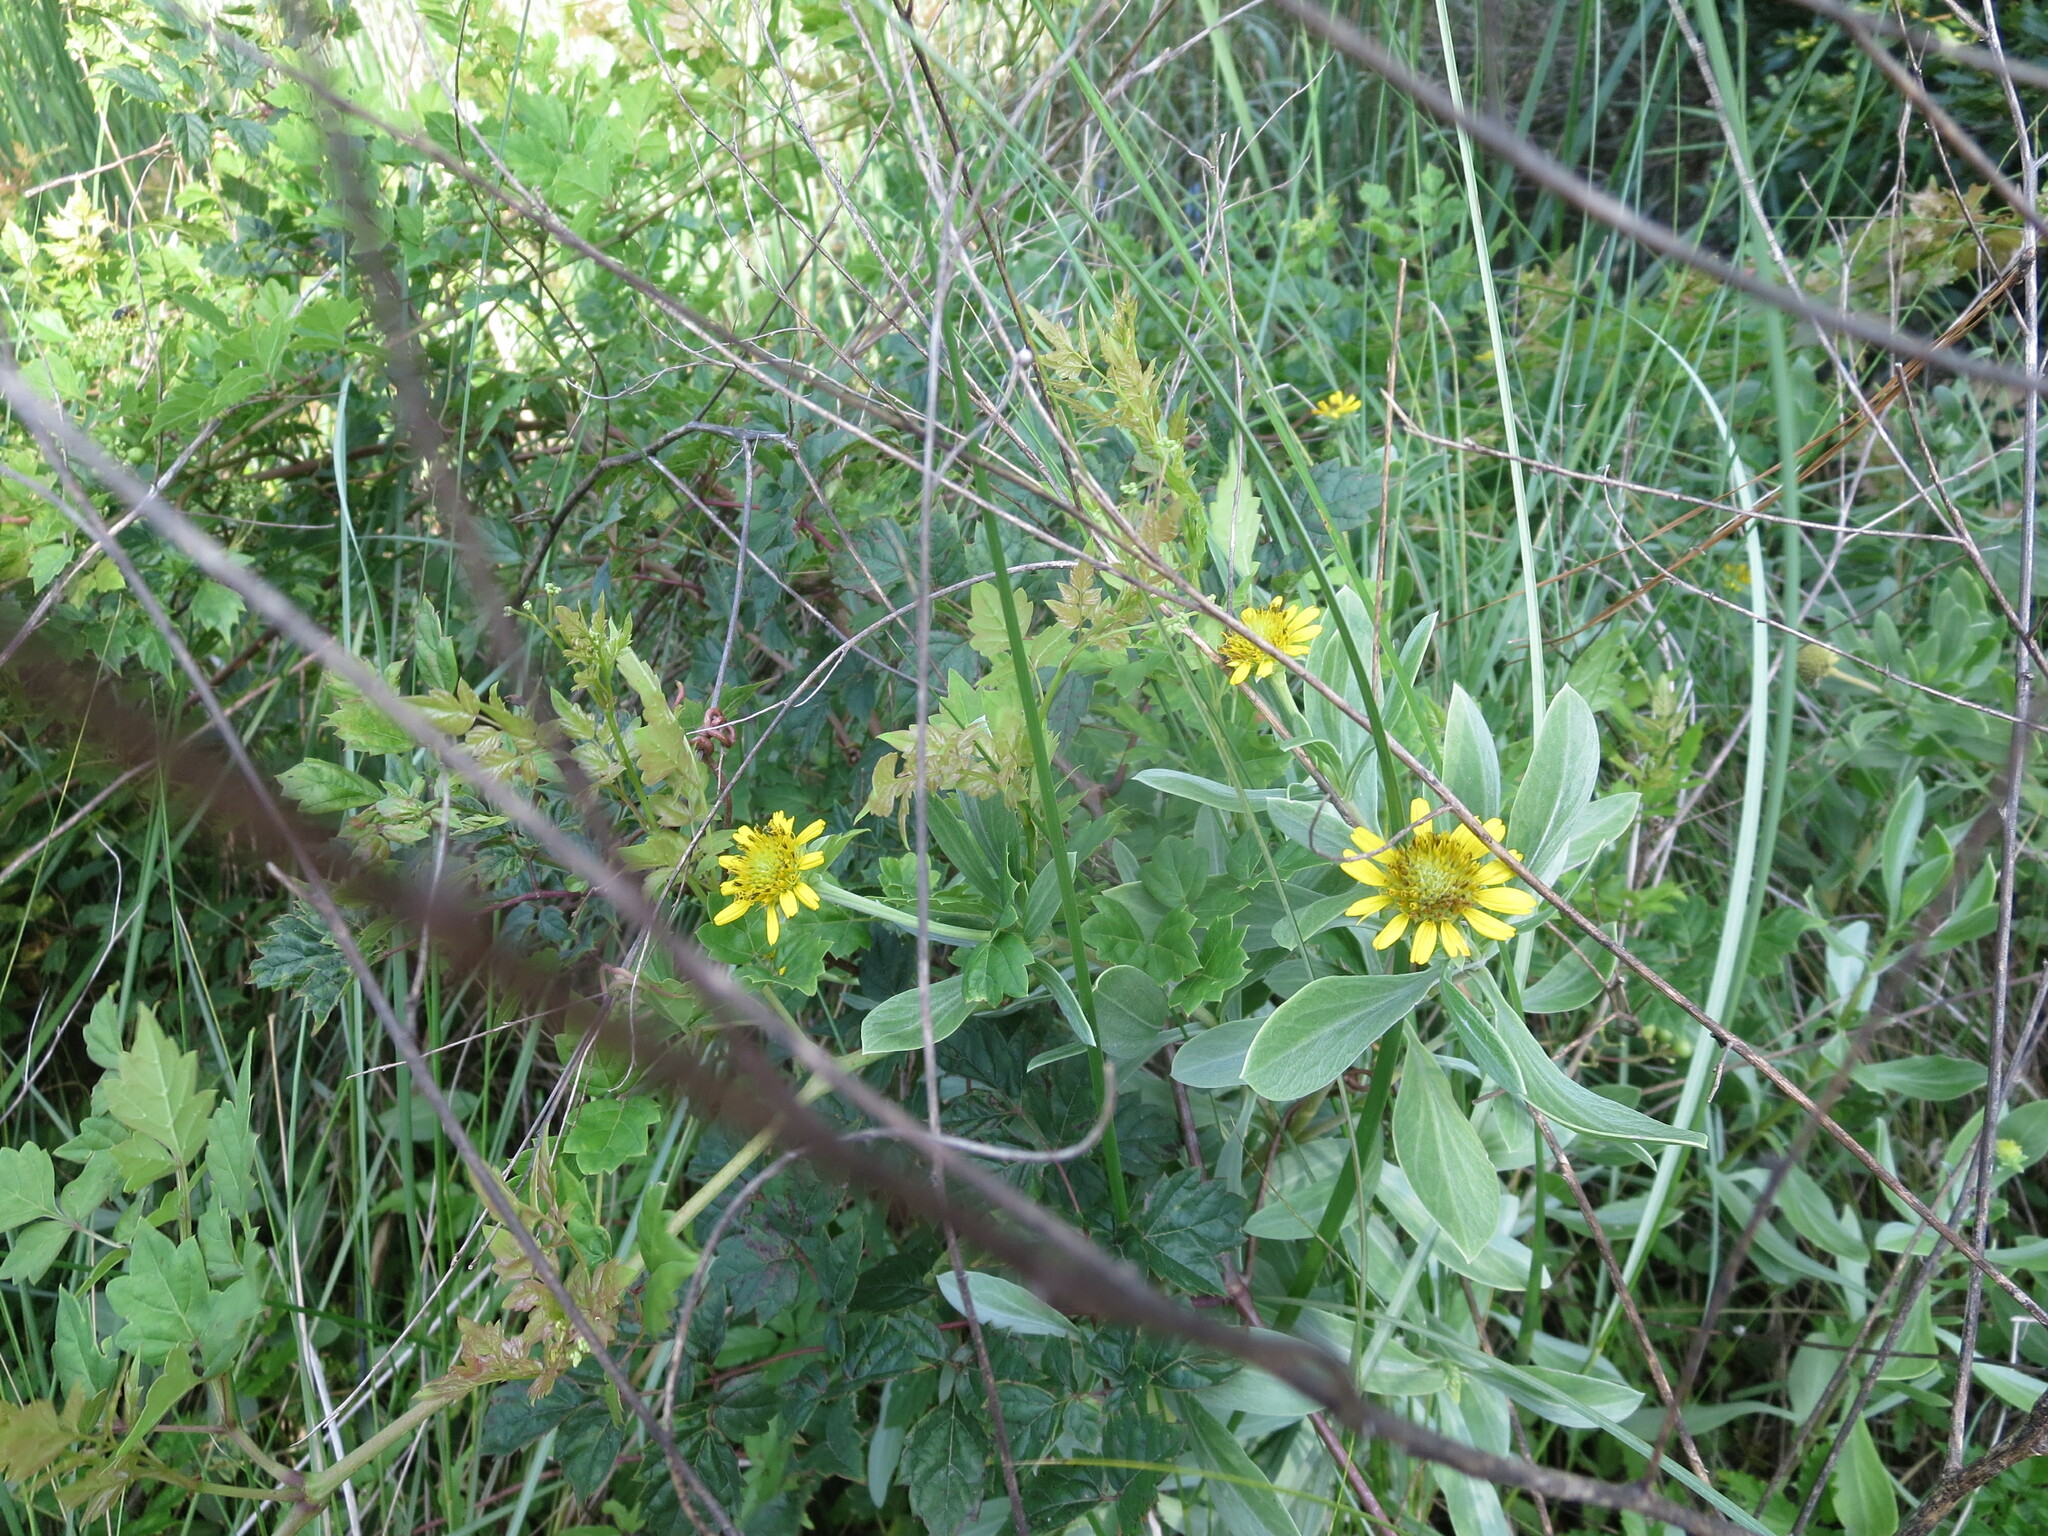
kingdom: Plantae
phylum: Tracheophyta
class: Magnoliopsida
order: Asterales
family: Asteraceae
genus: Borrichia
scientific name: Borrichia frutescens
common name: Sea oxeye
